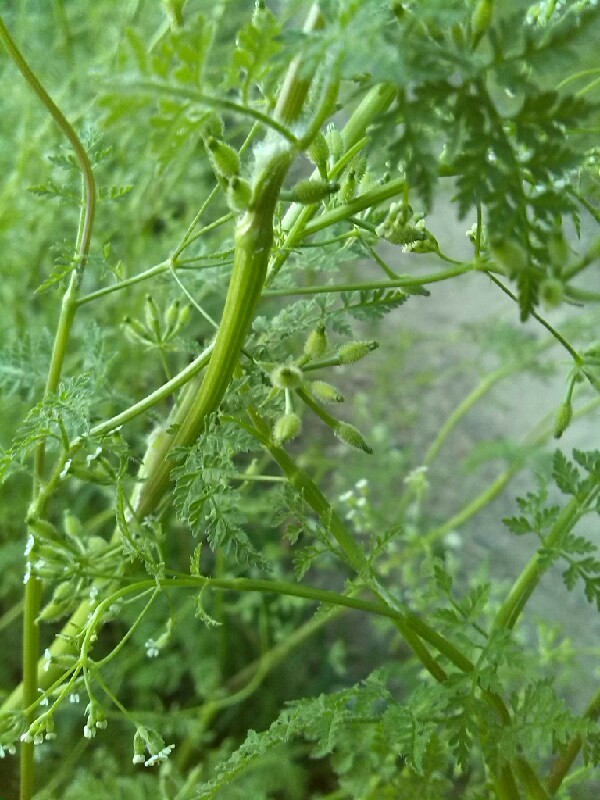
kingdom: Plantae
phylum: Tracheophyta
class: Magnoliopsida
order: Apiales
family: Apiaceae
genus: Anthriscus
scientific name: Anthriscus caucalis
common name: Bur chervil
